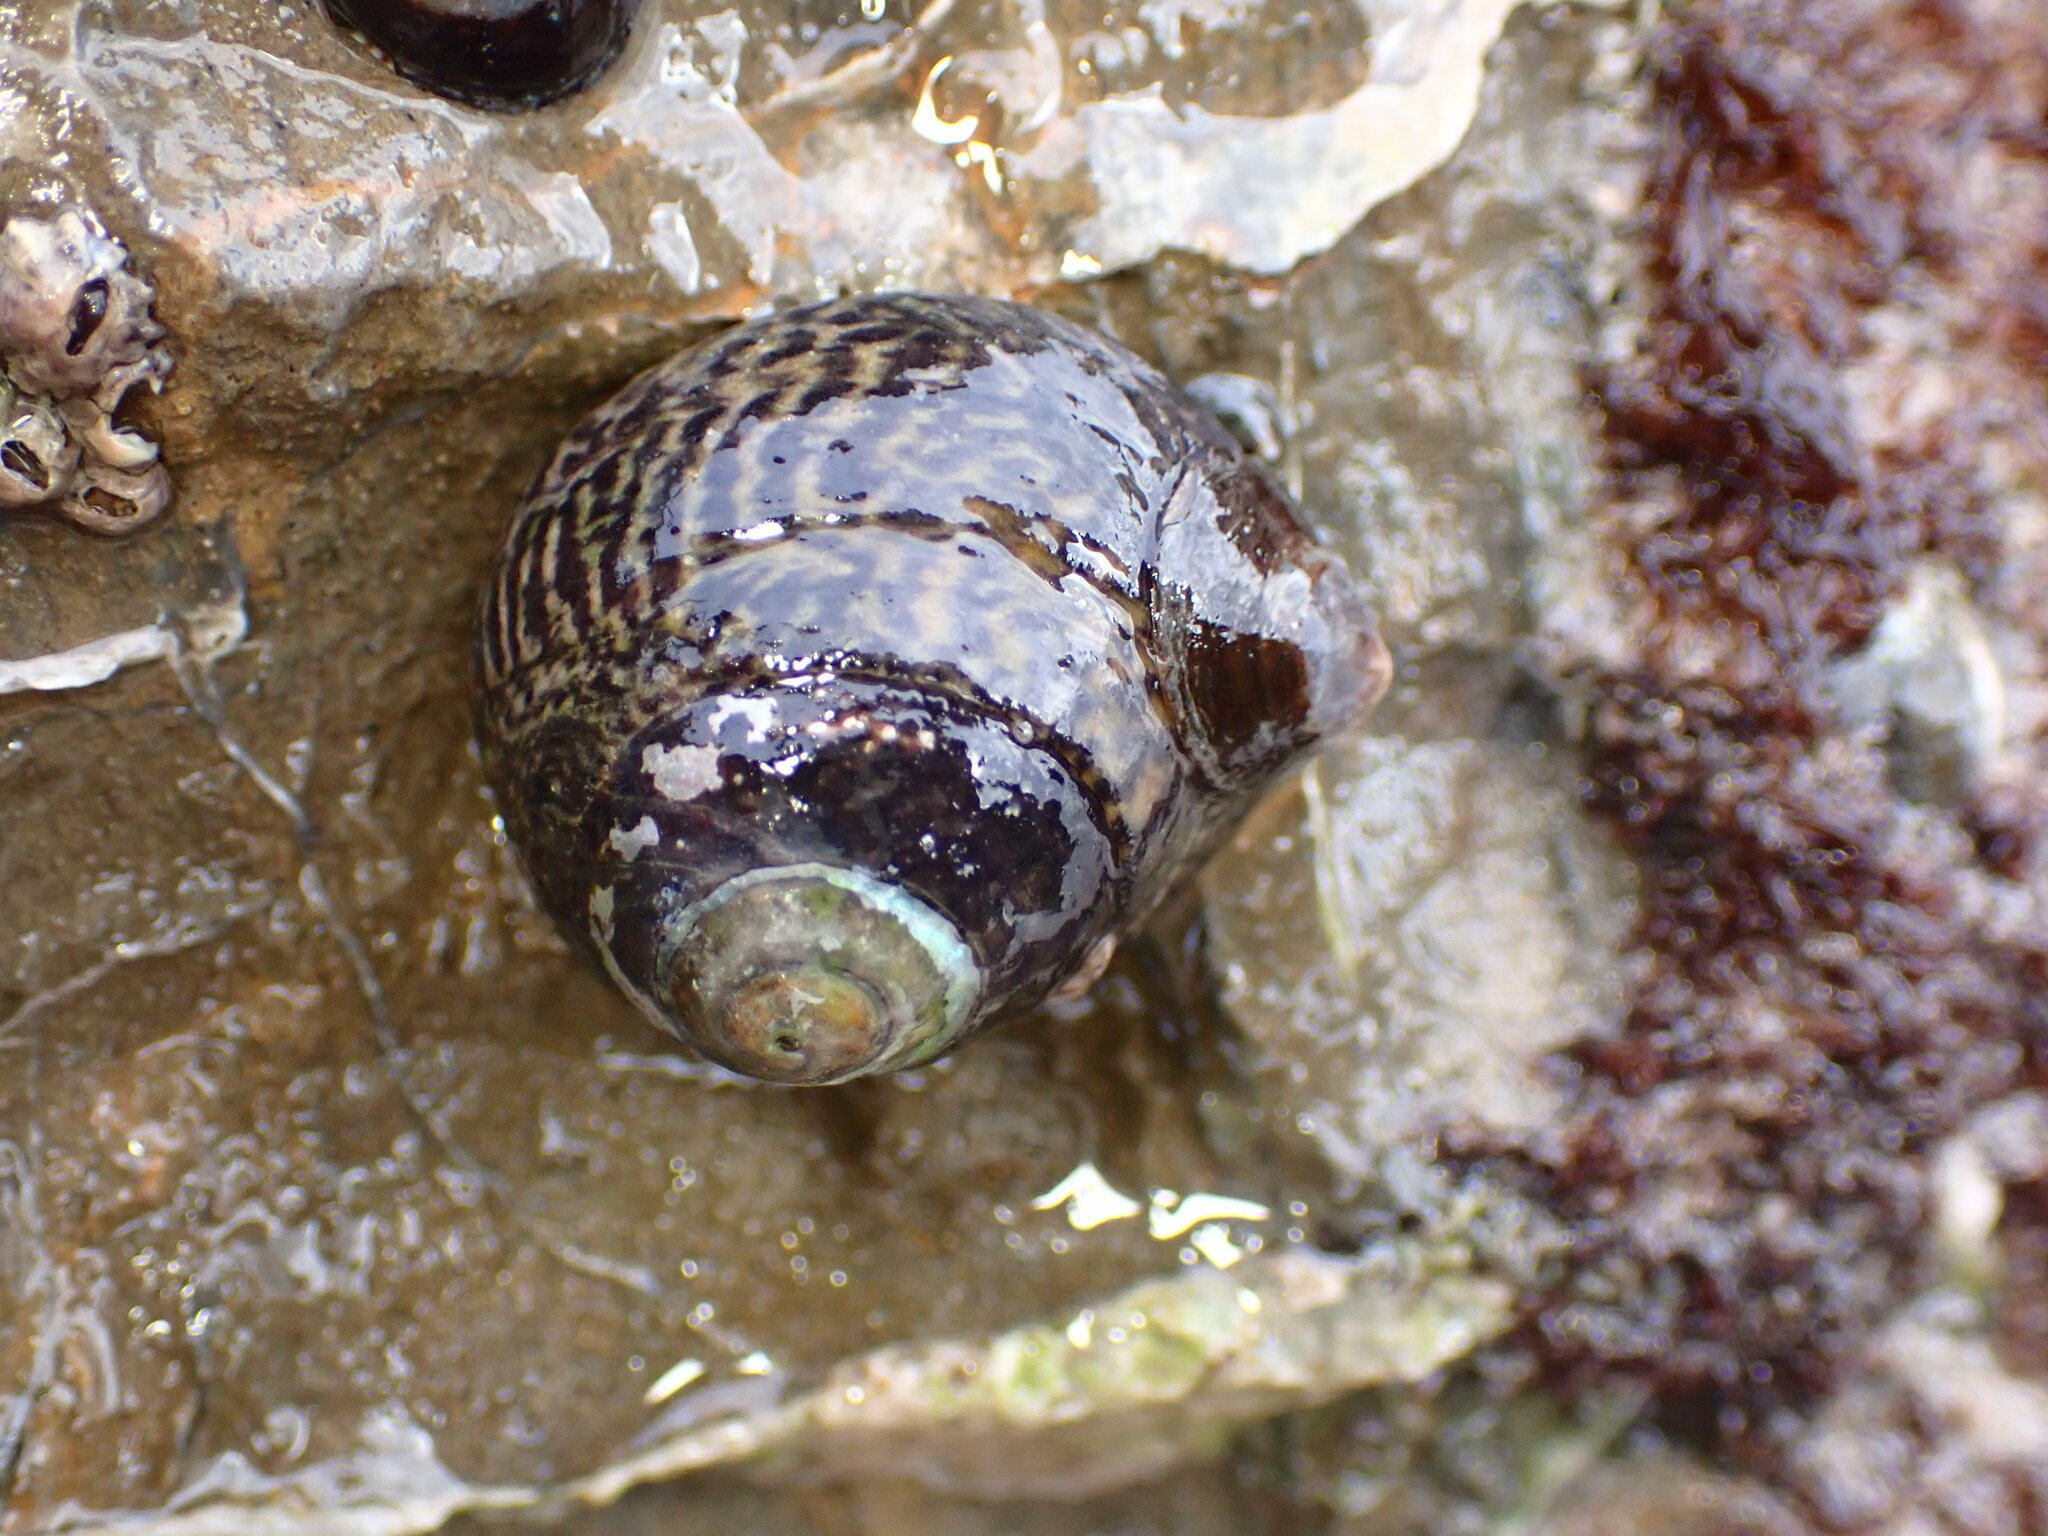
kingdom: Animalia
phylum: Mollusca
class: Gastropoda
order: Trochida
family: Tegulidae
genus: Tegula
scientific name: Tegula gallina
